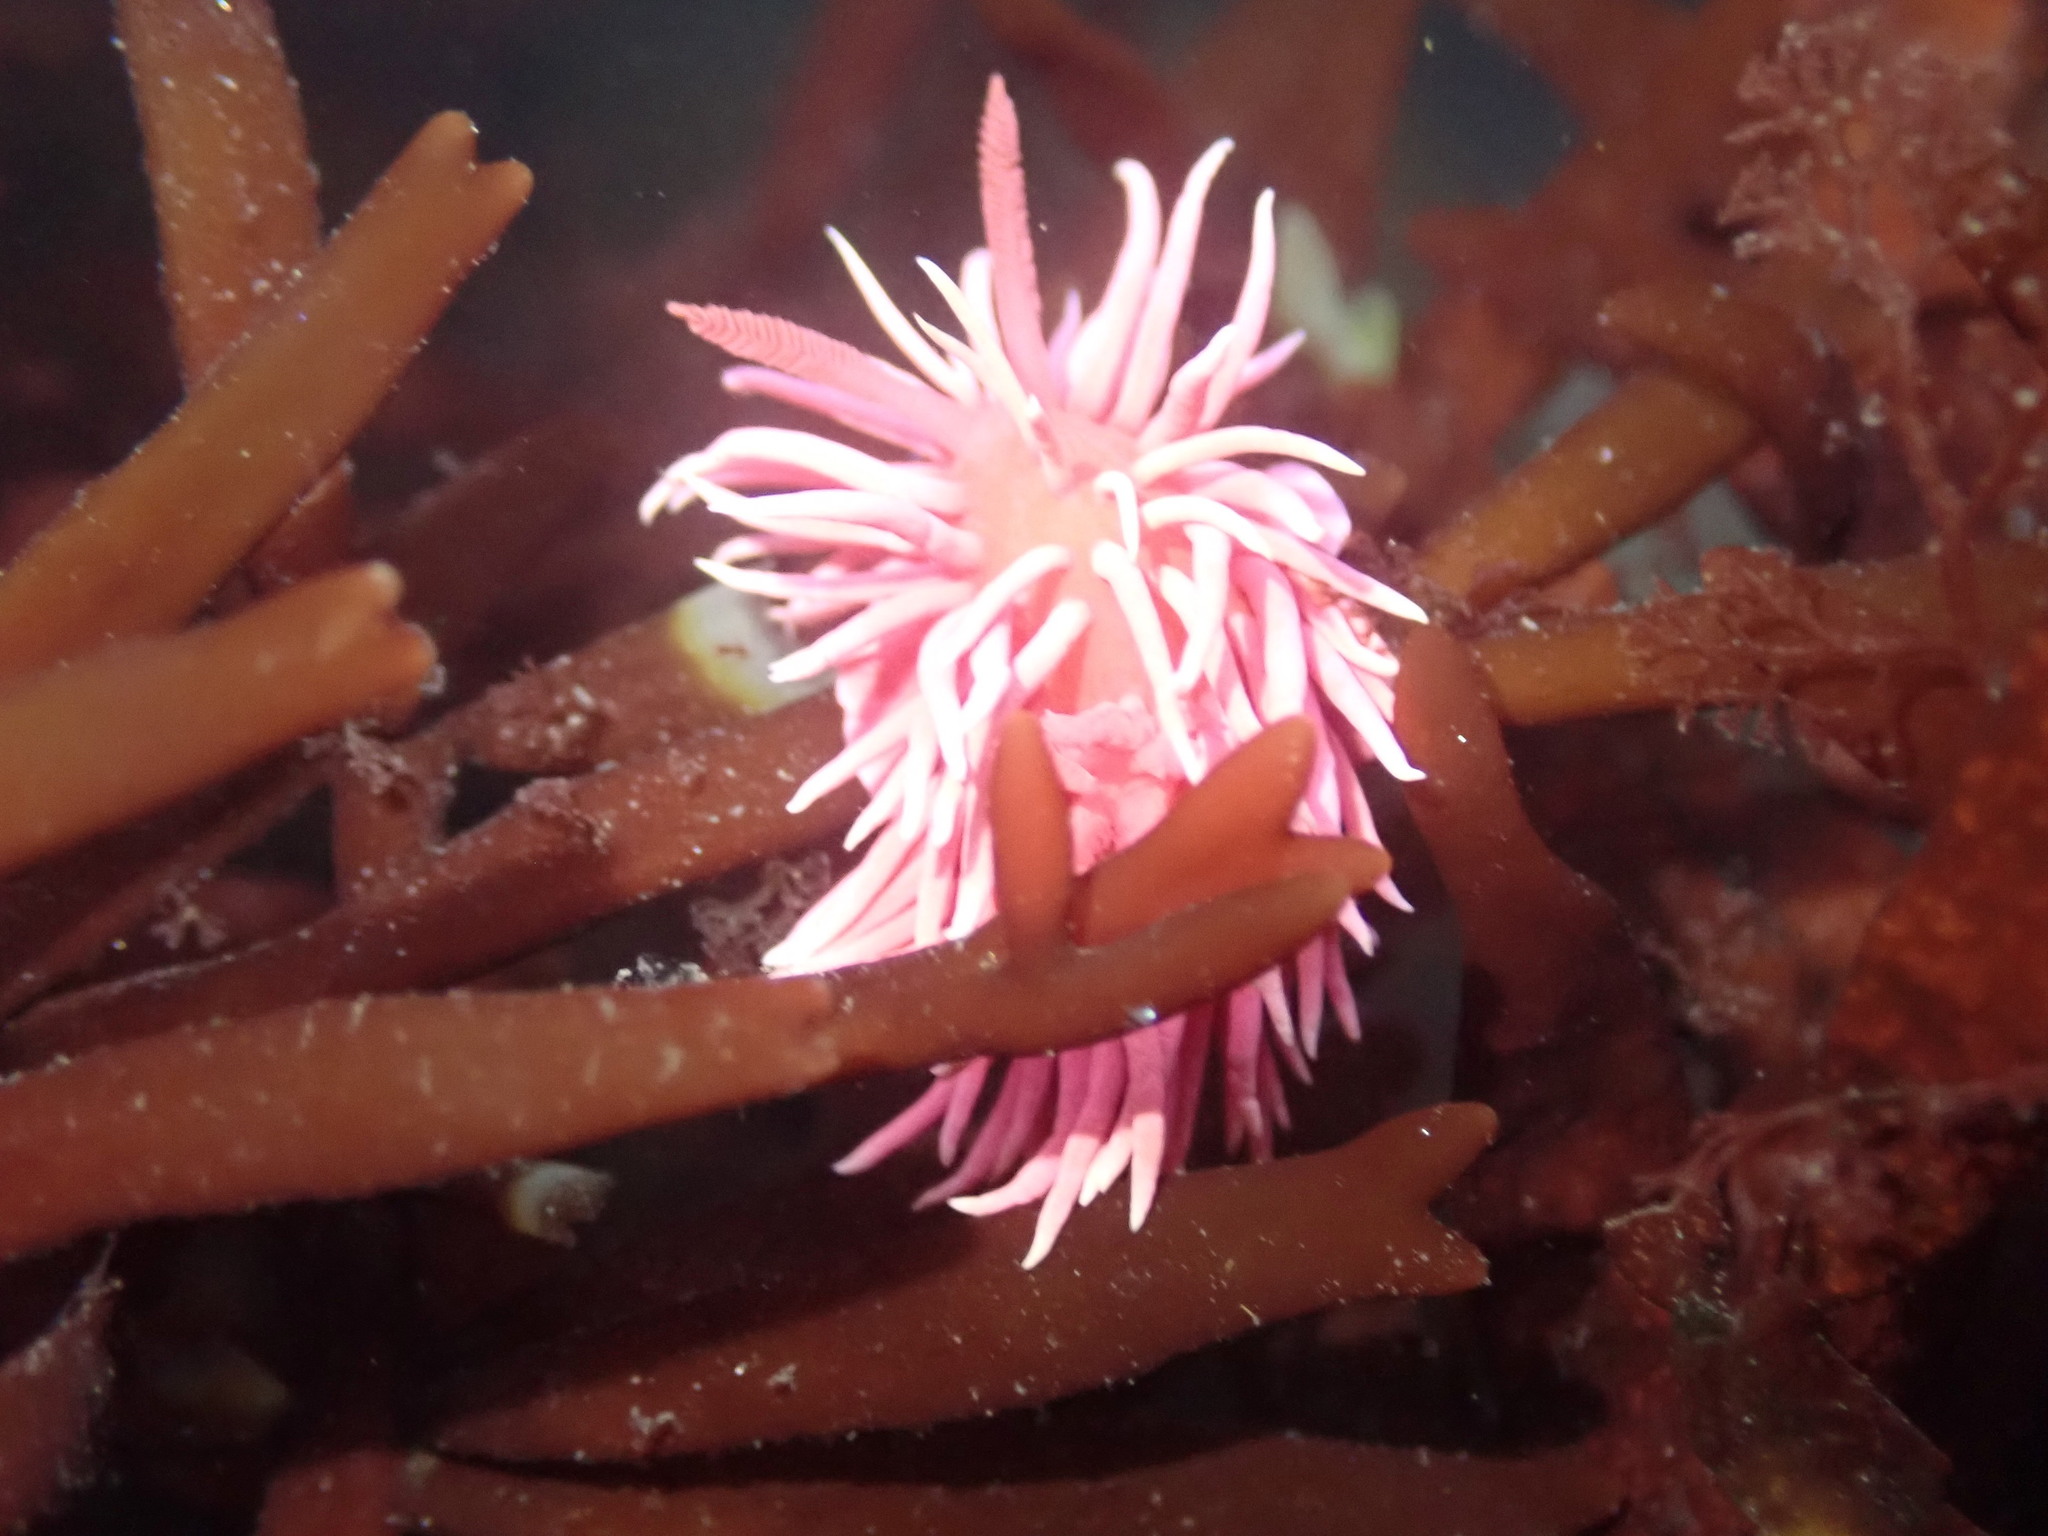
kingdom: Animalia
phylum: Mollusca
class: Gastropoda
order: Nudibranchia
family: Goniodorididae
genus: Okenia
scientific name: Okenia
